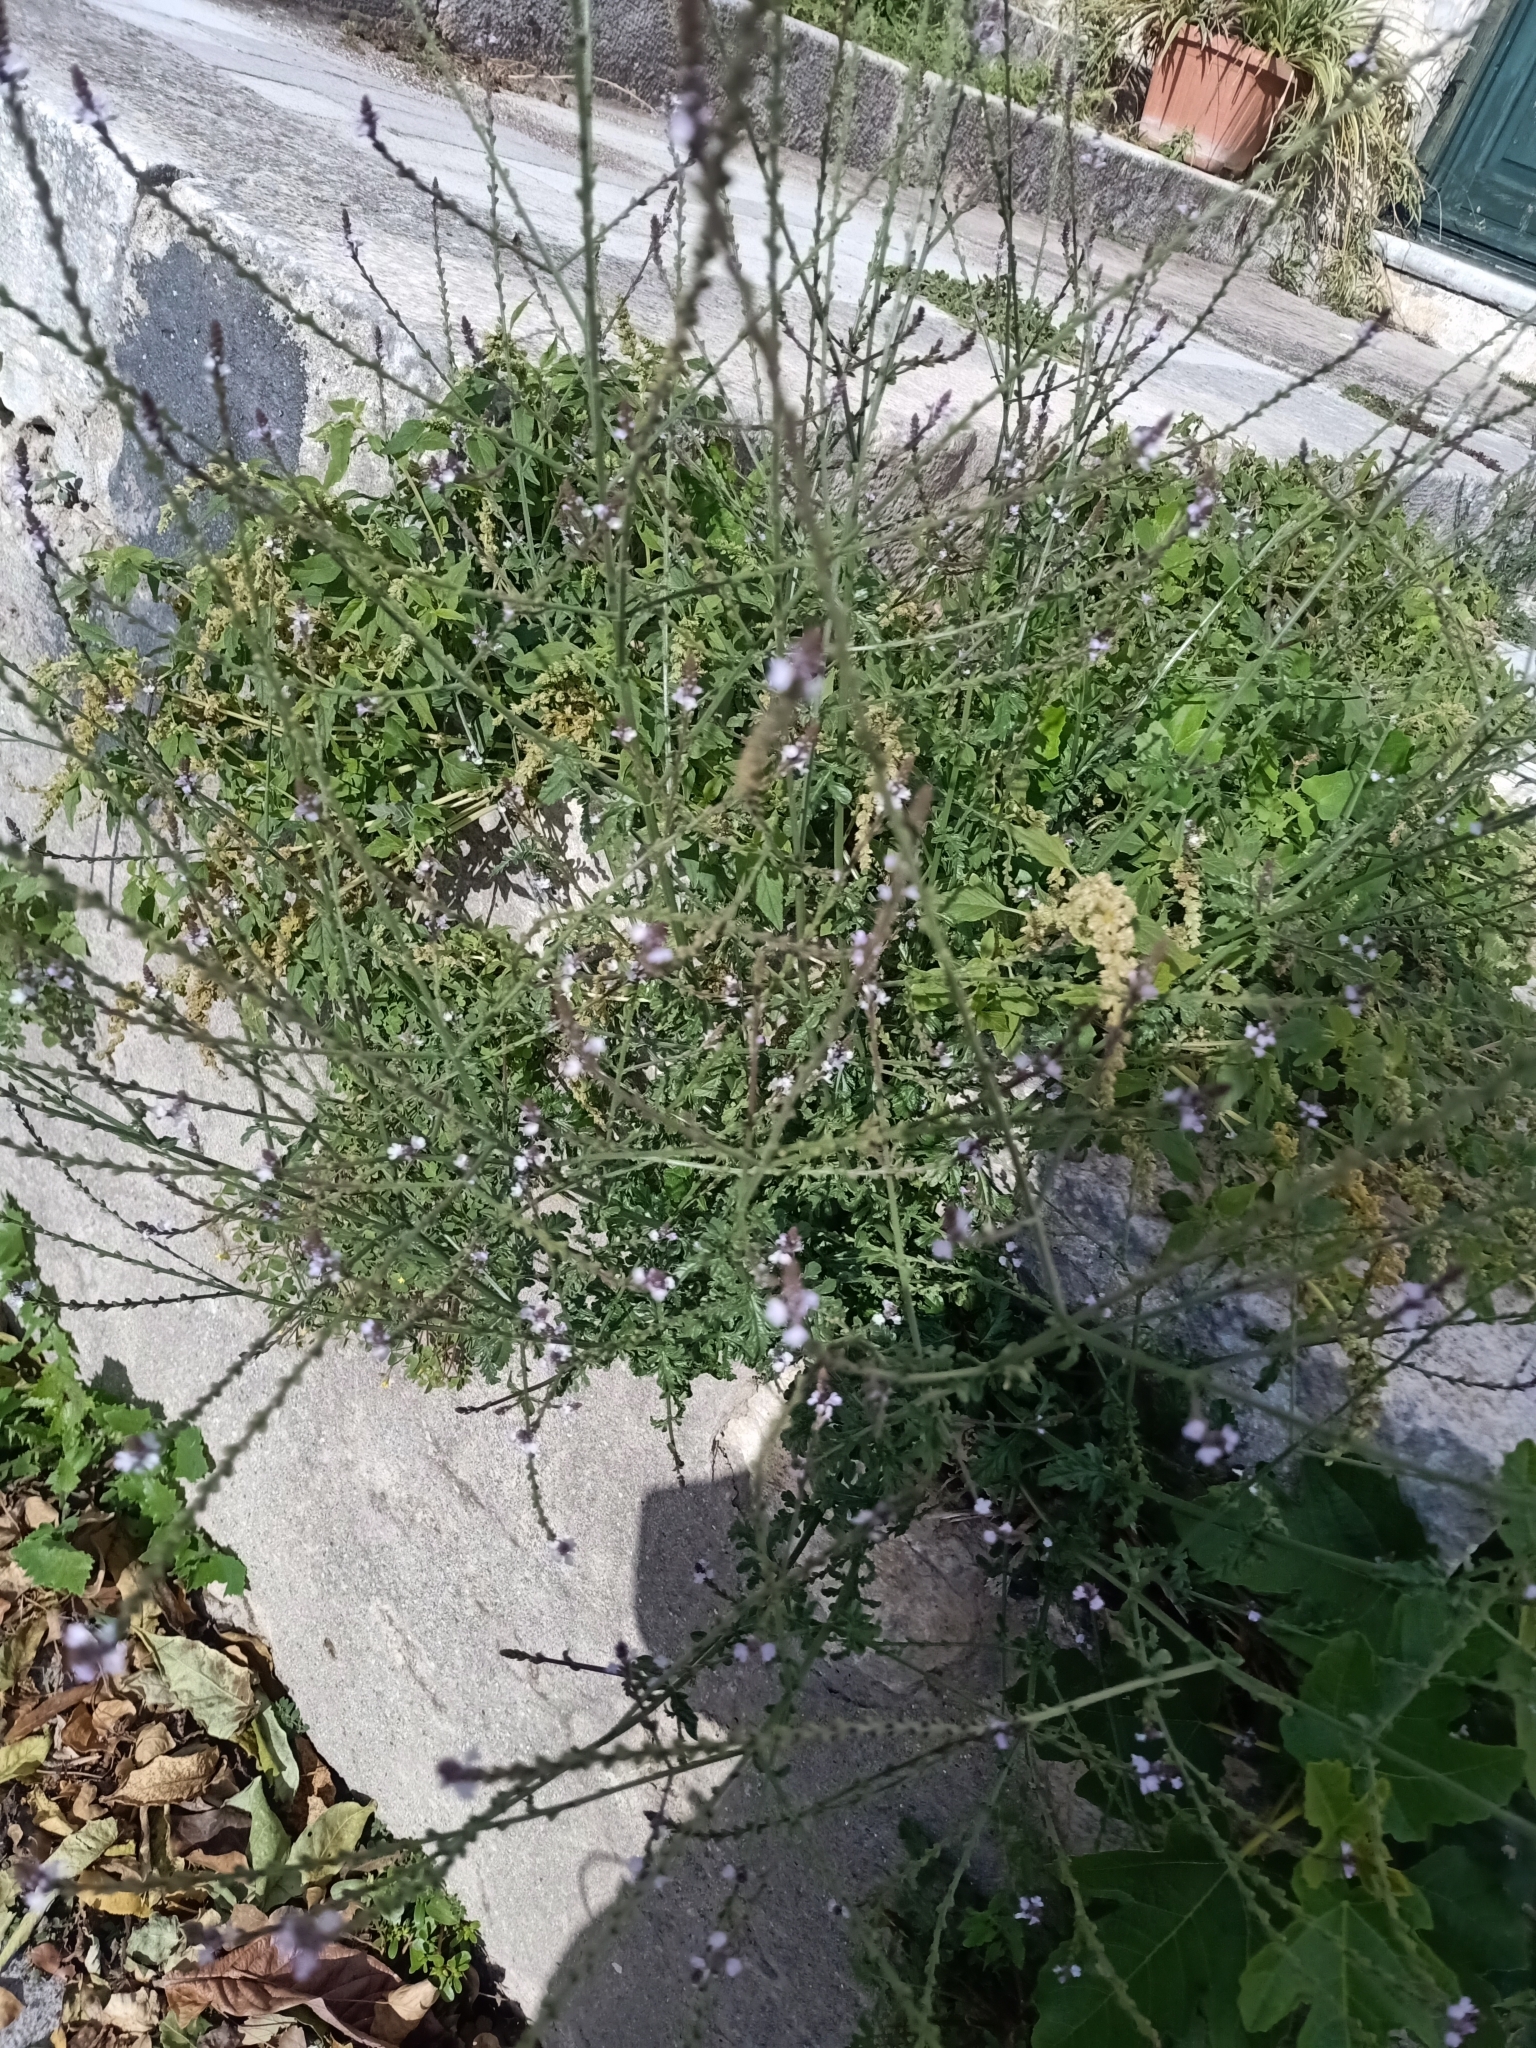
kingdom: Plantae
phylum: Tracheophyta
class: Magnoliopsida
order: Lamiales
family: Verbenaceae
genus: Verbena
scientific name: Verbena officinalis
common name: Vervain
